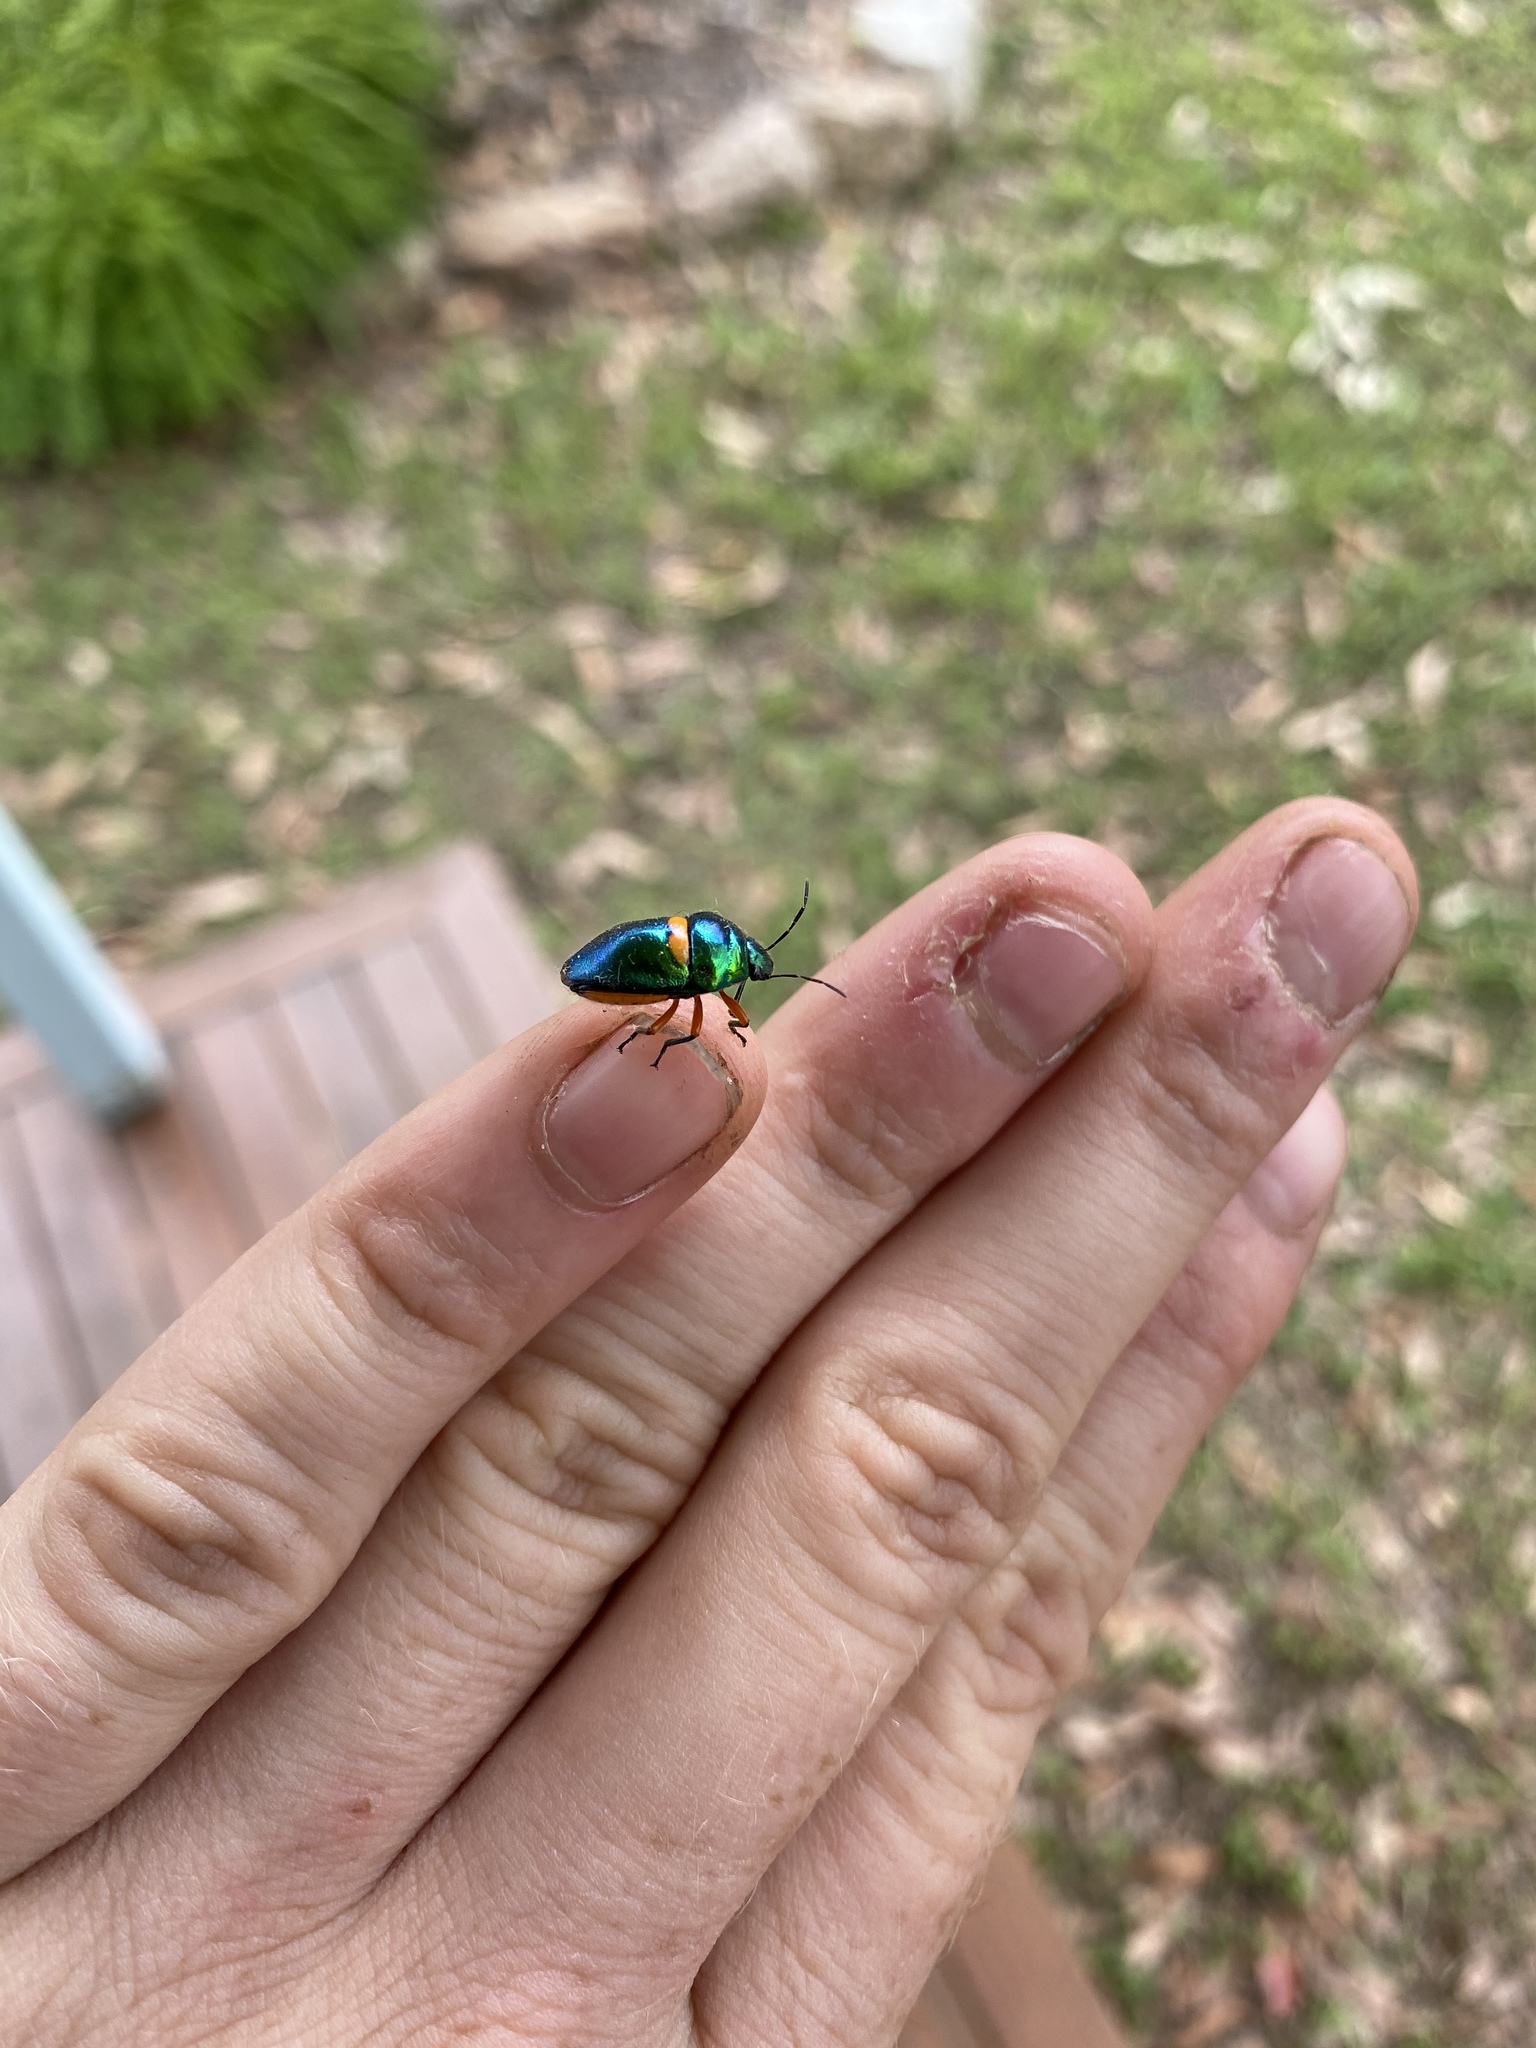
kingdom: Animalia
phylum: Arthropoda
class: Insecta
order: Hemiptera
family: Scutelleridae
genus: Lampromicra
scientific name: Lampromicra senator
